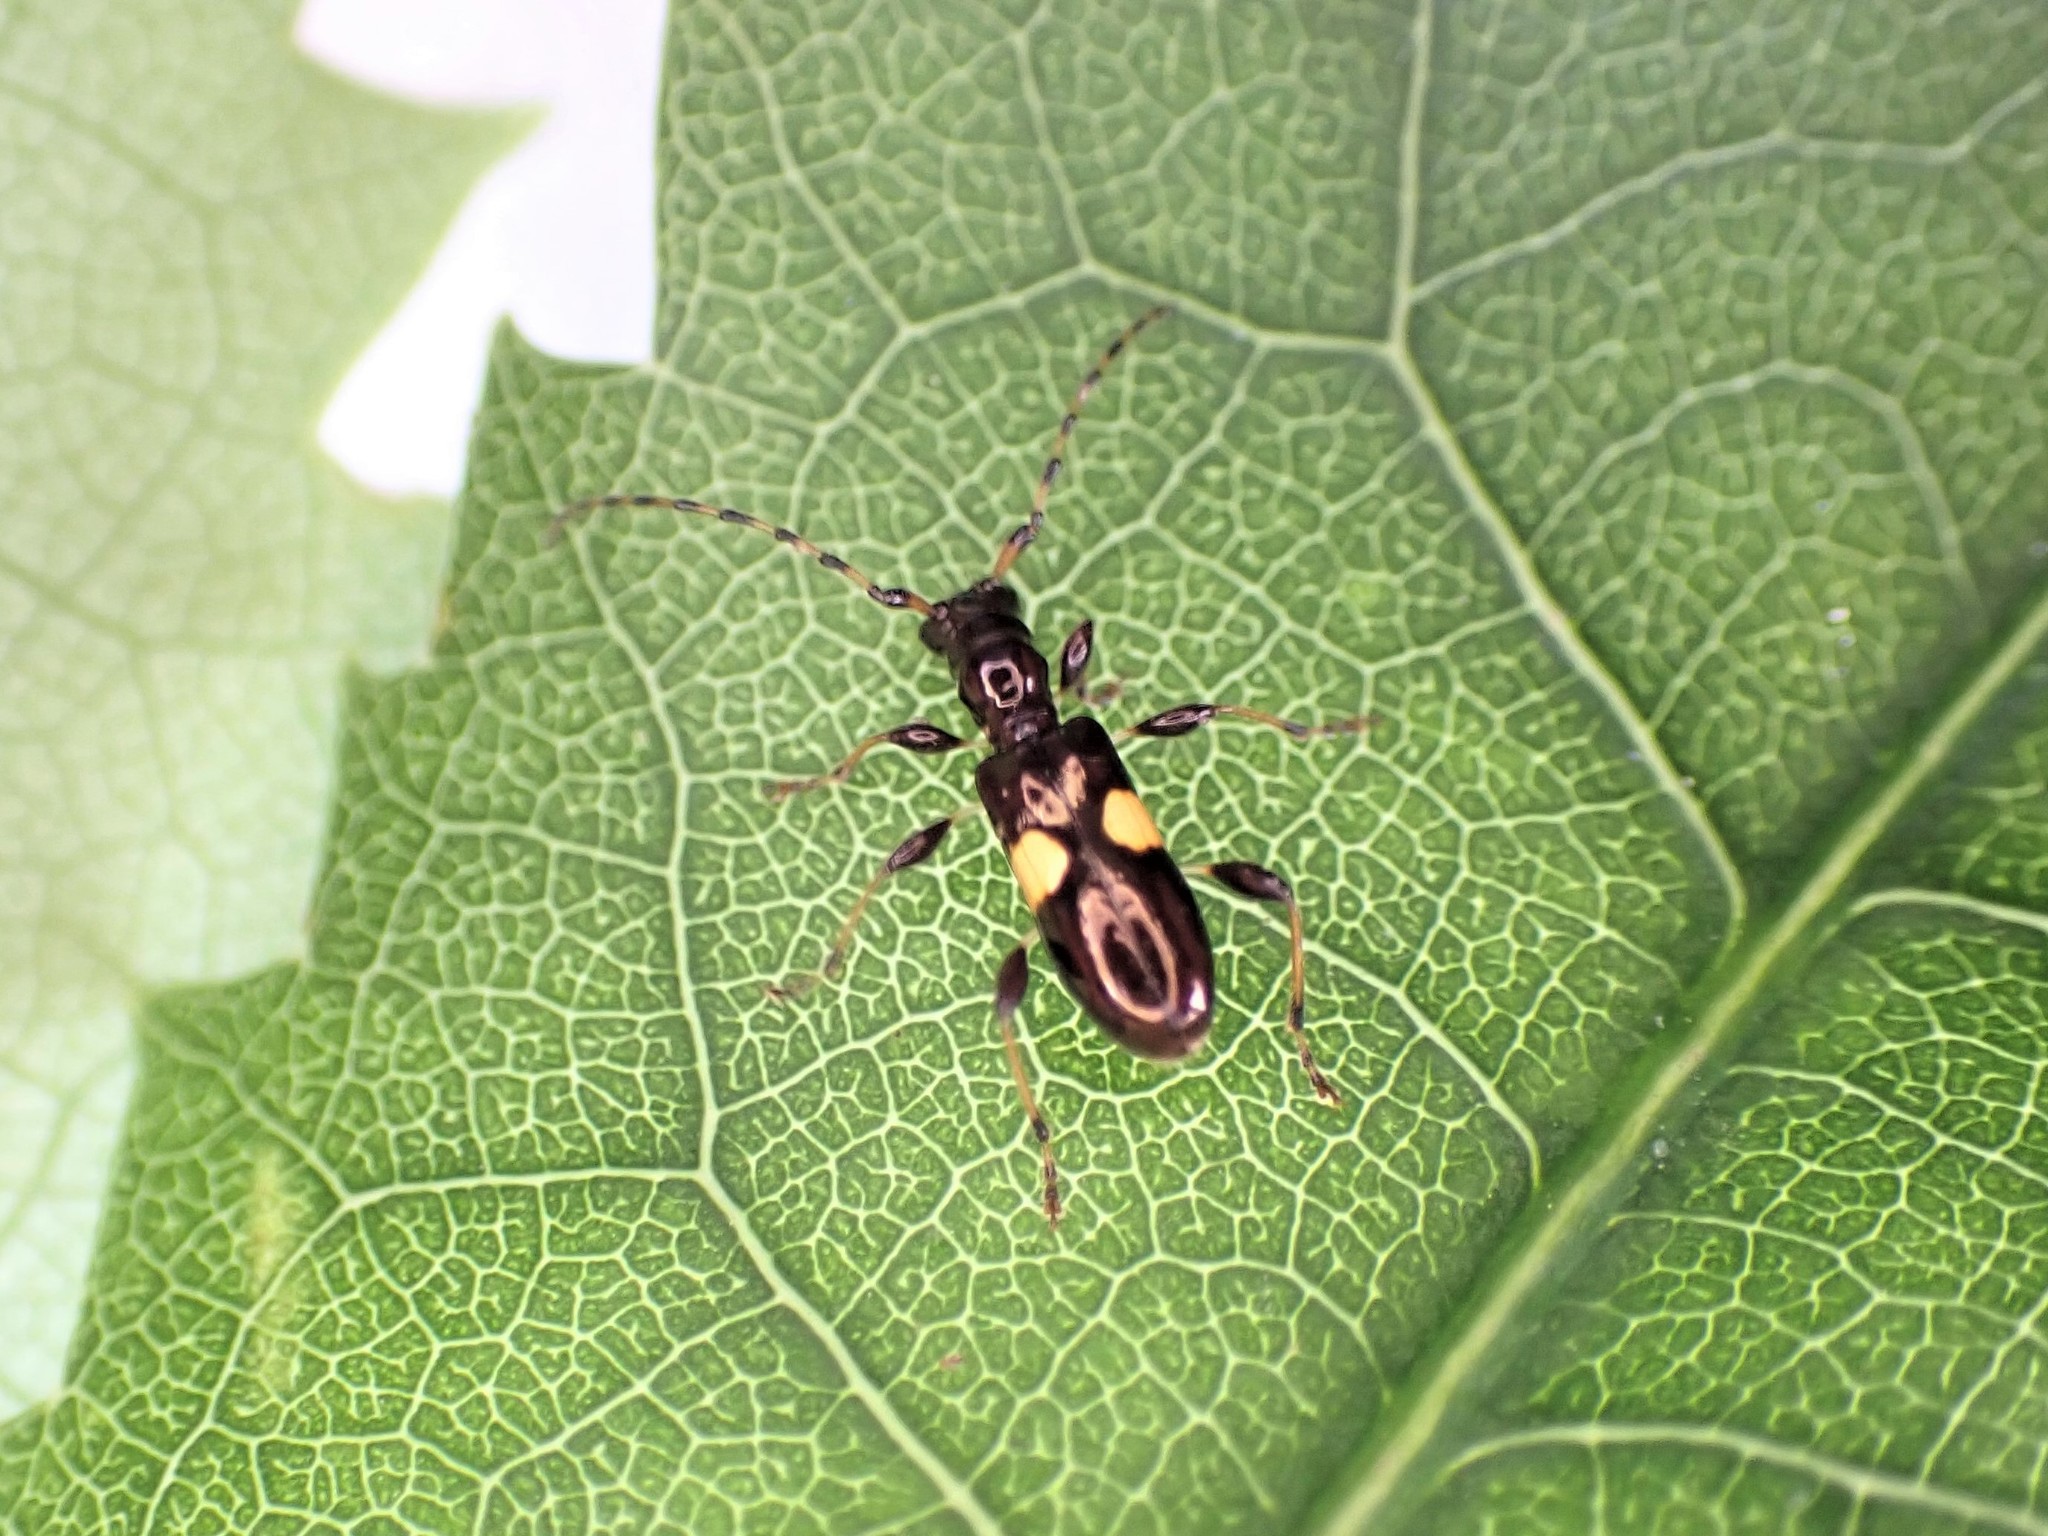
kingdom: Animalia
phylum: Arthropoda
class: Insecta
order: Coleoptera
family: Cerambycidae
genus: Zorion
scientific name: Zorion guttigerum
